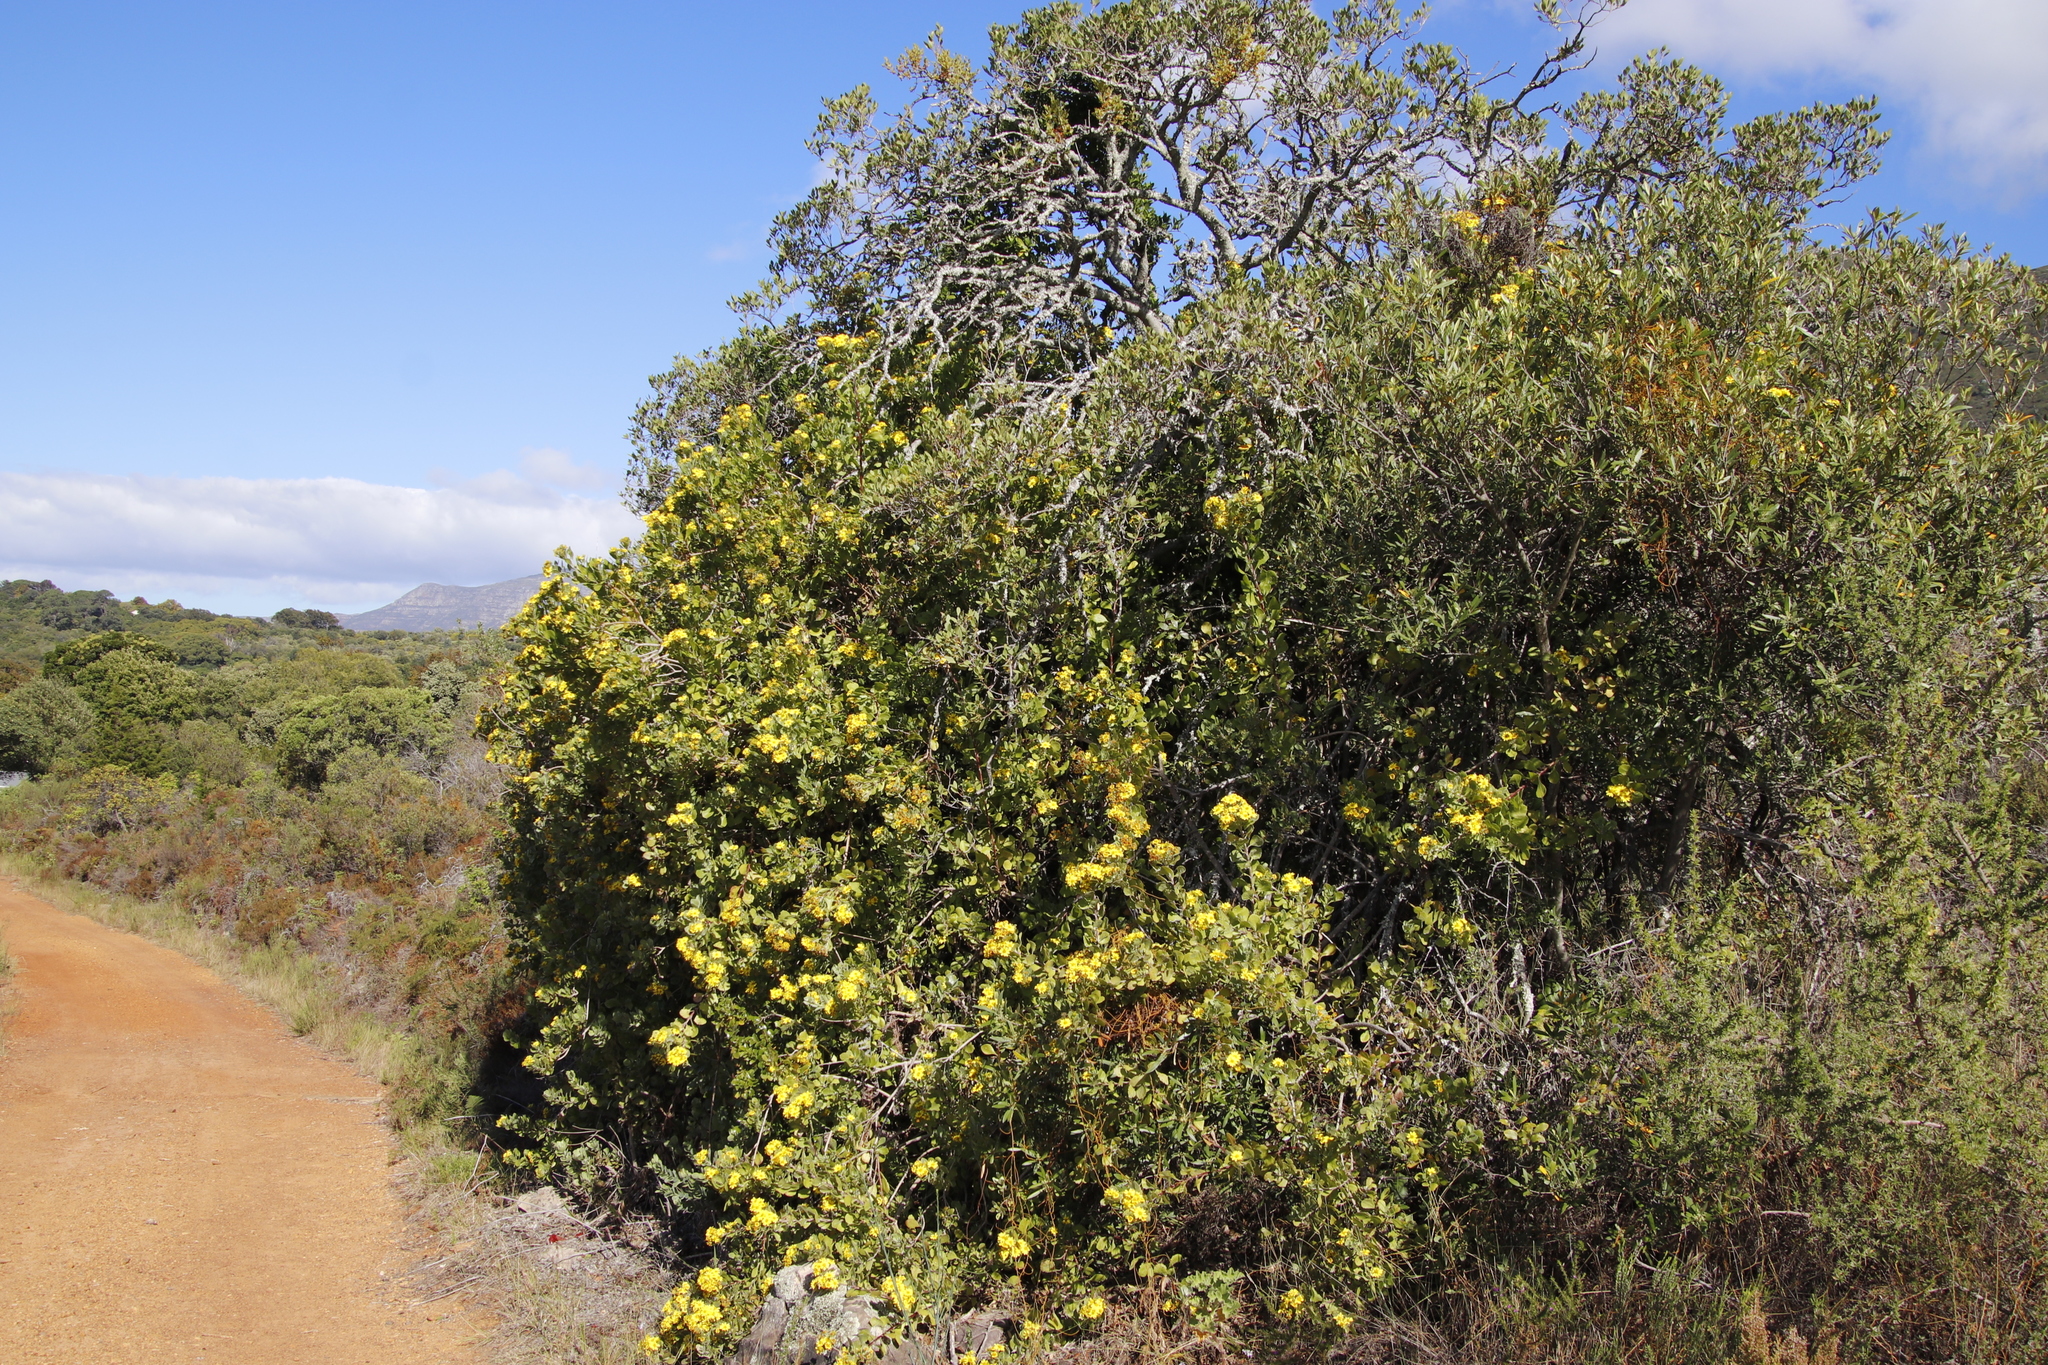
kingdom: Plantae
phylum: Tracheophyta
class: Magnoliopsida
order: Asterales
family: Asteraceae
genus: Osteospermum
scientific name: Osteospermum moniliferum
